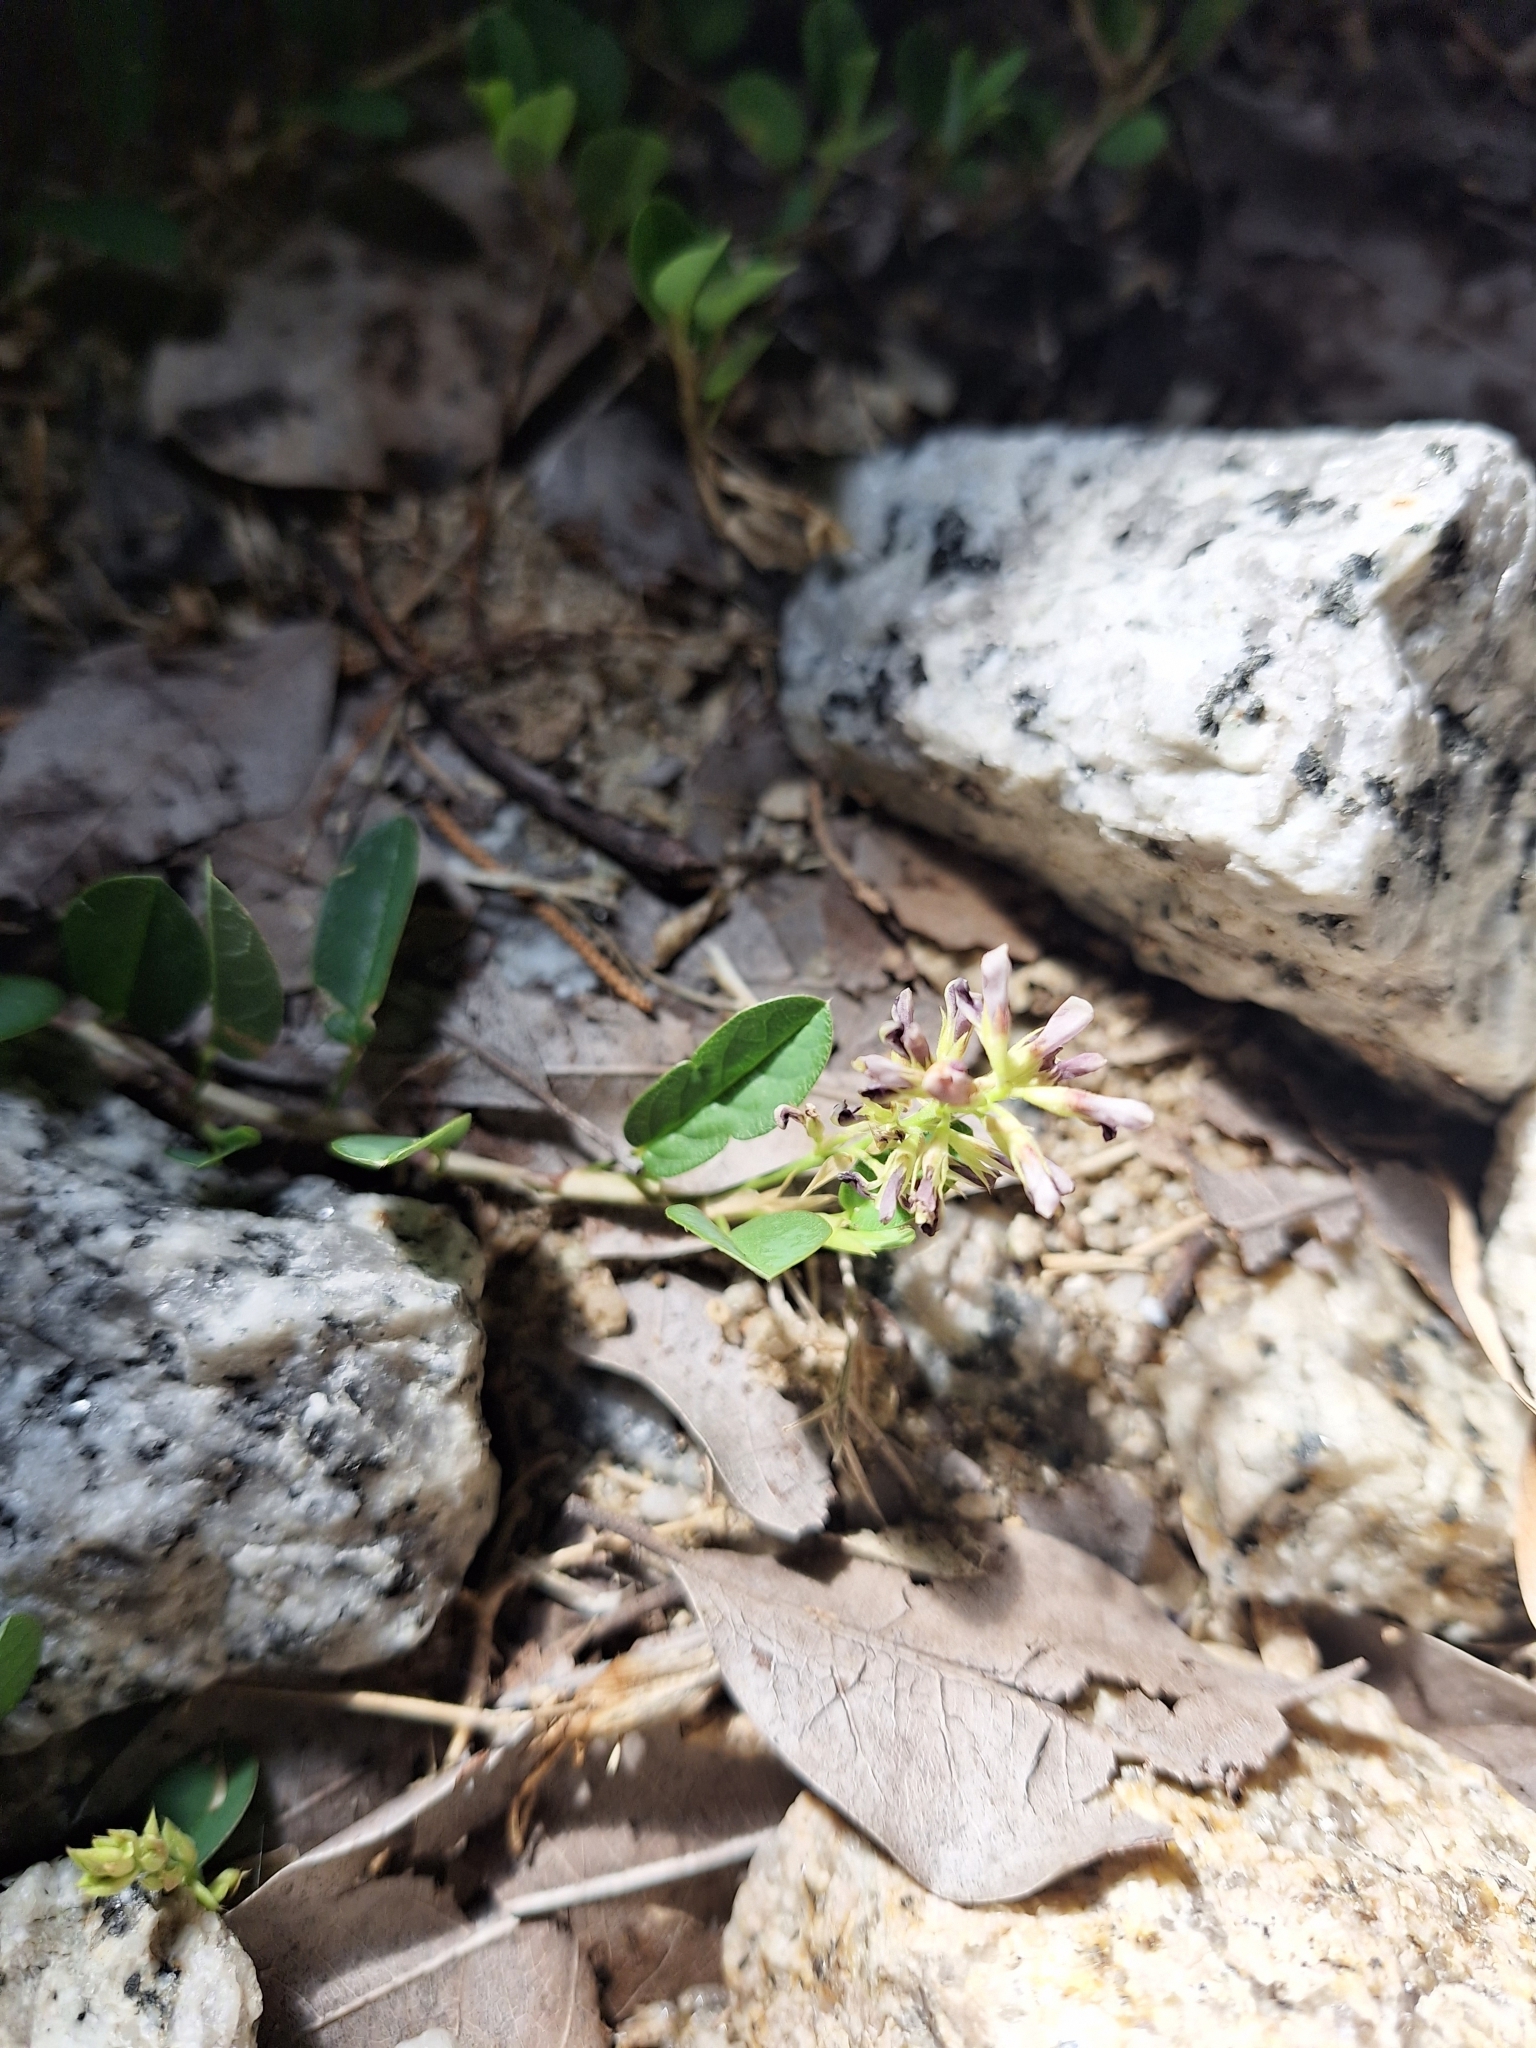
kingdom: Plantae
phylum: Tracheophyta
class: Magnoliopsida
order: Fabales
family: Fabaceae
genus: Alysicarpus
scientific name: Alysicarpus vaginalis
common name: White moneywort
